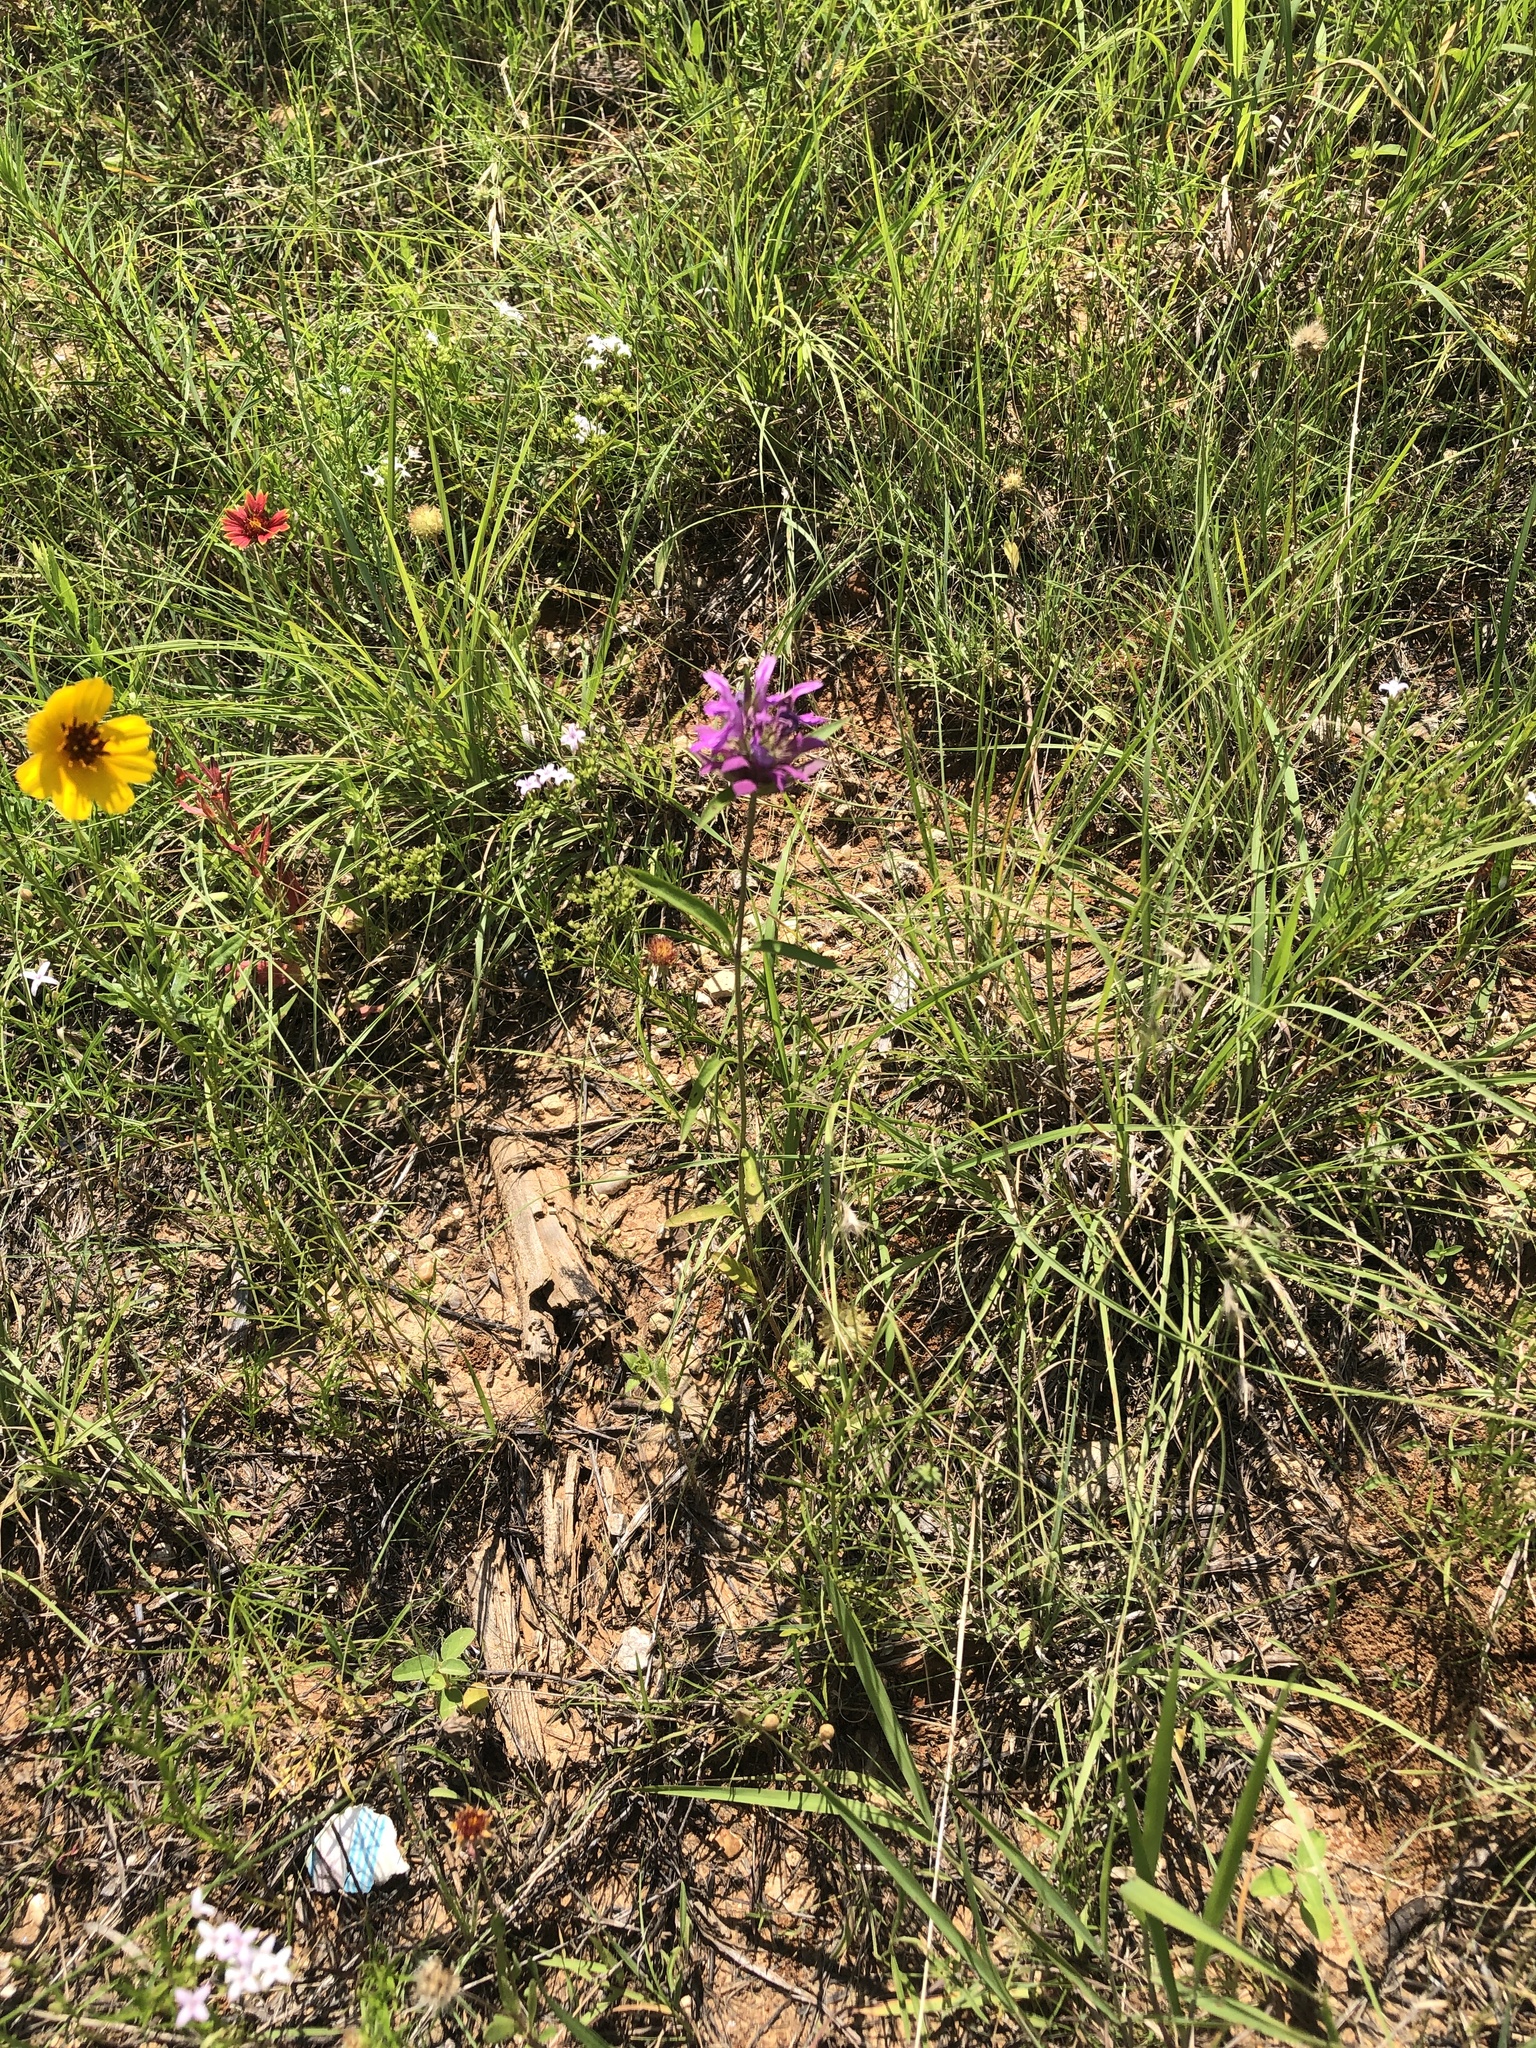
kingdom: Plantae
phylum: Tracheophyta
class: Magnoliopsida
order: Lamiales
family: Lamiaceae
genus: Monarda
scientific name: Monarda citriodora
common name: Lemon beebalm
